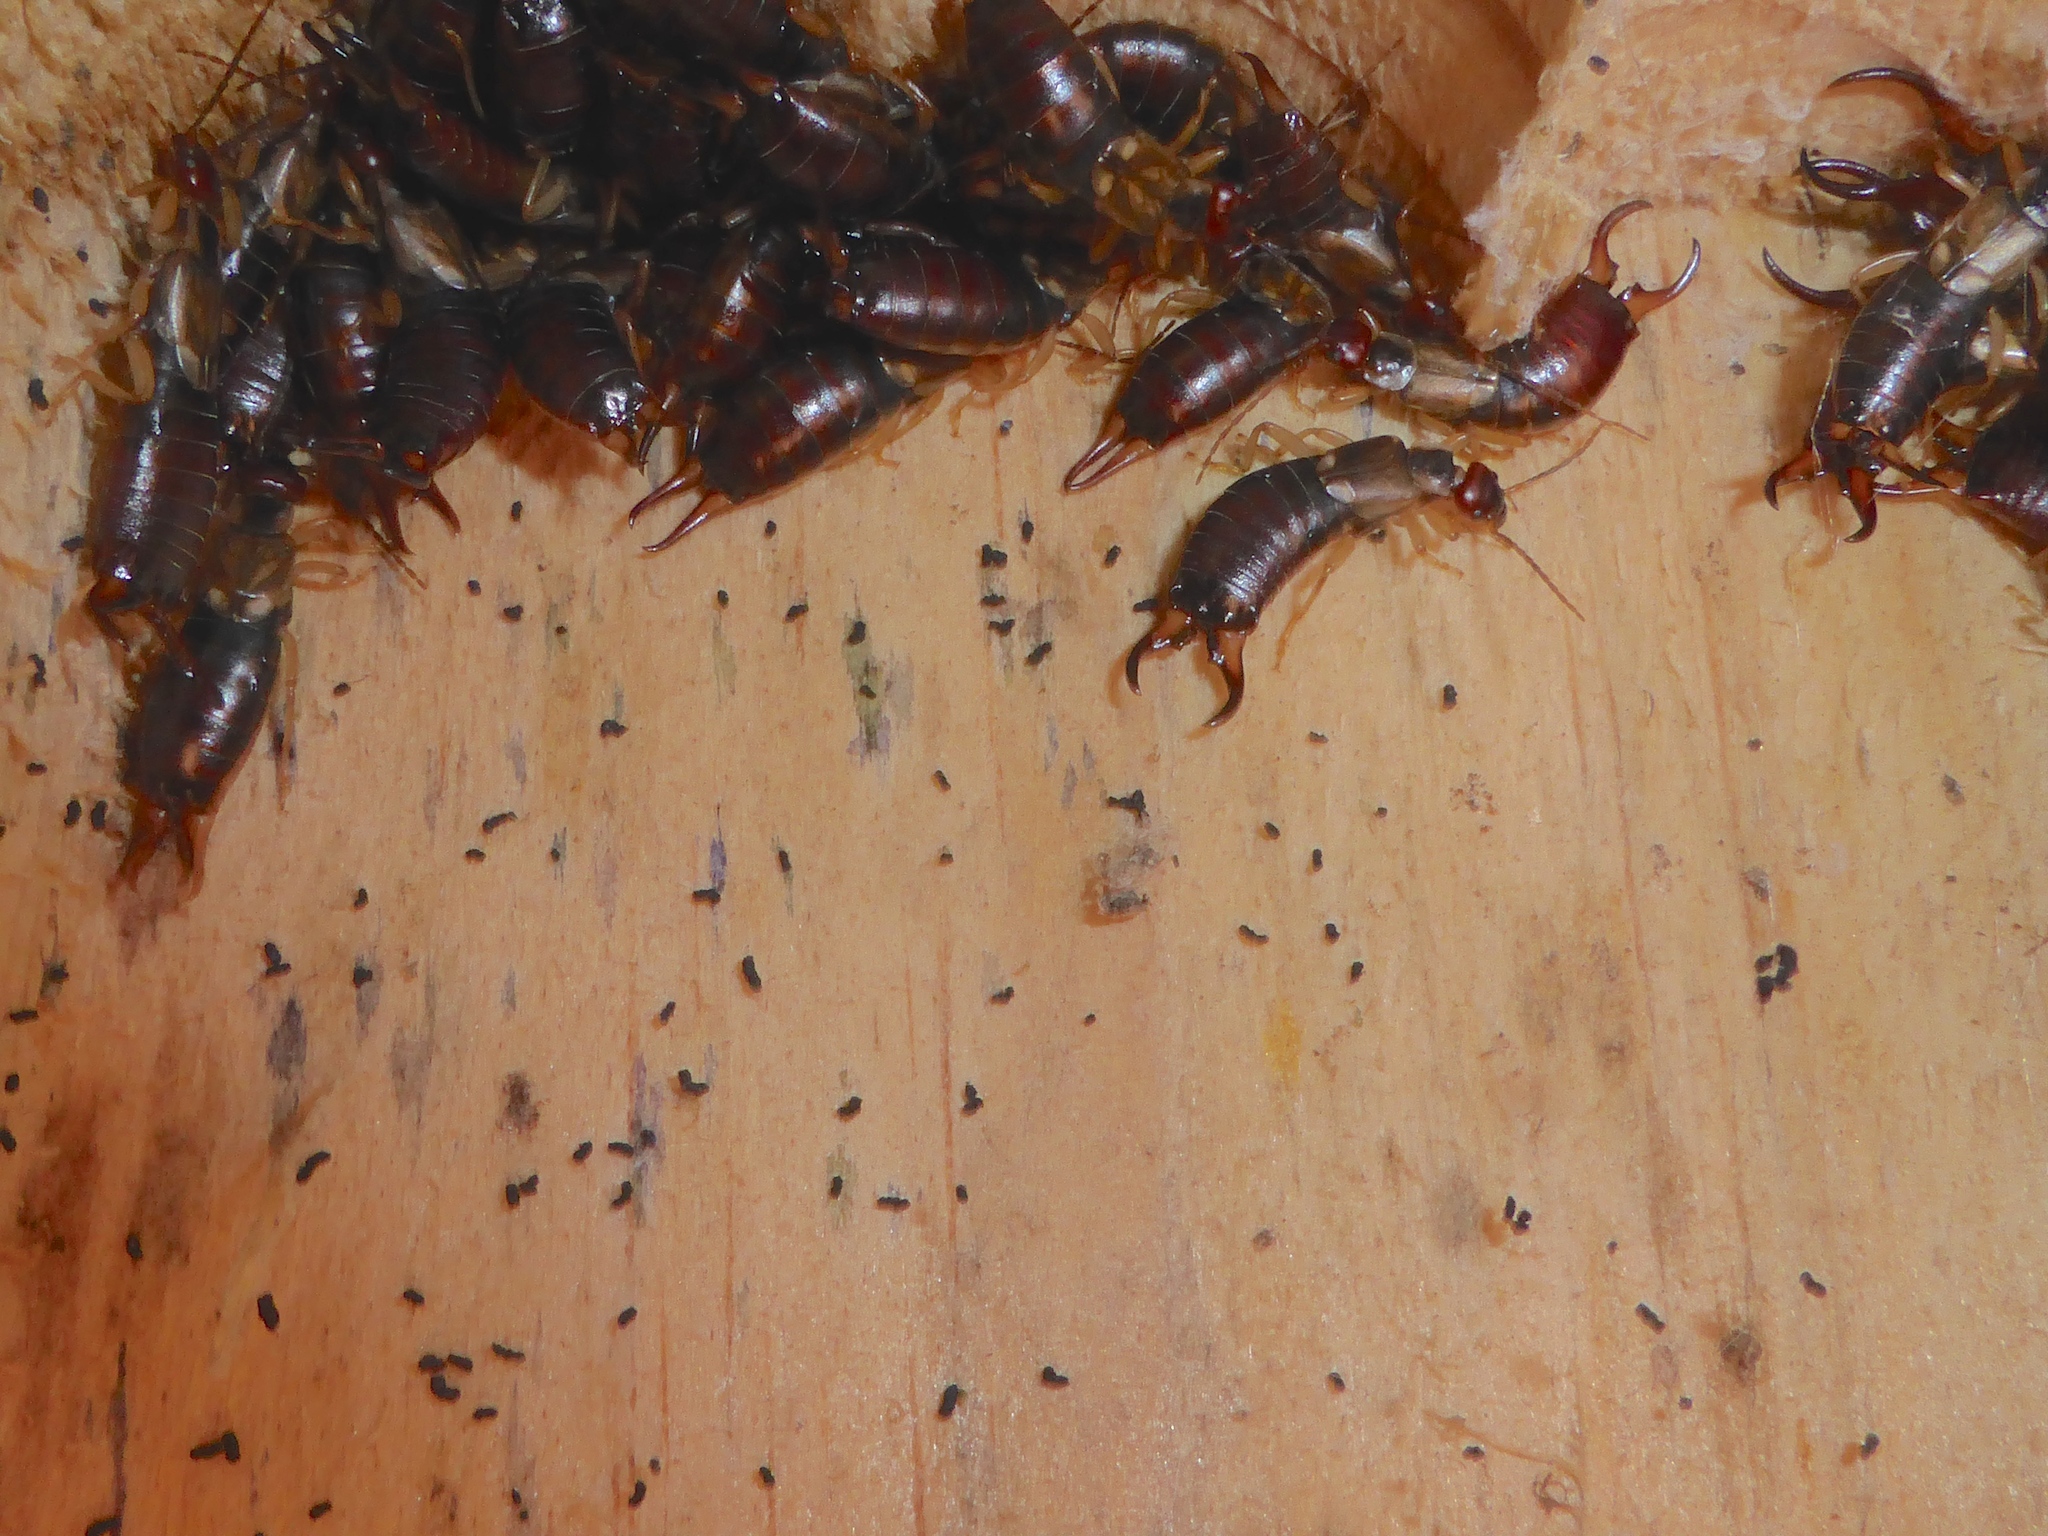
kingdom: Animalia
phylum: Arthropoda
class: Insecta
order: Dermaptera
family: Forficulidae
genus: Forficula
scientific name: Forficula
